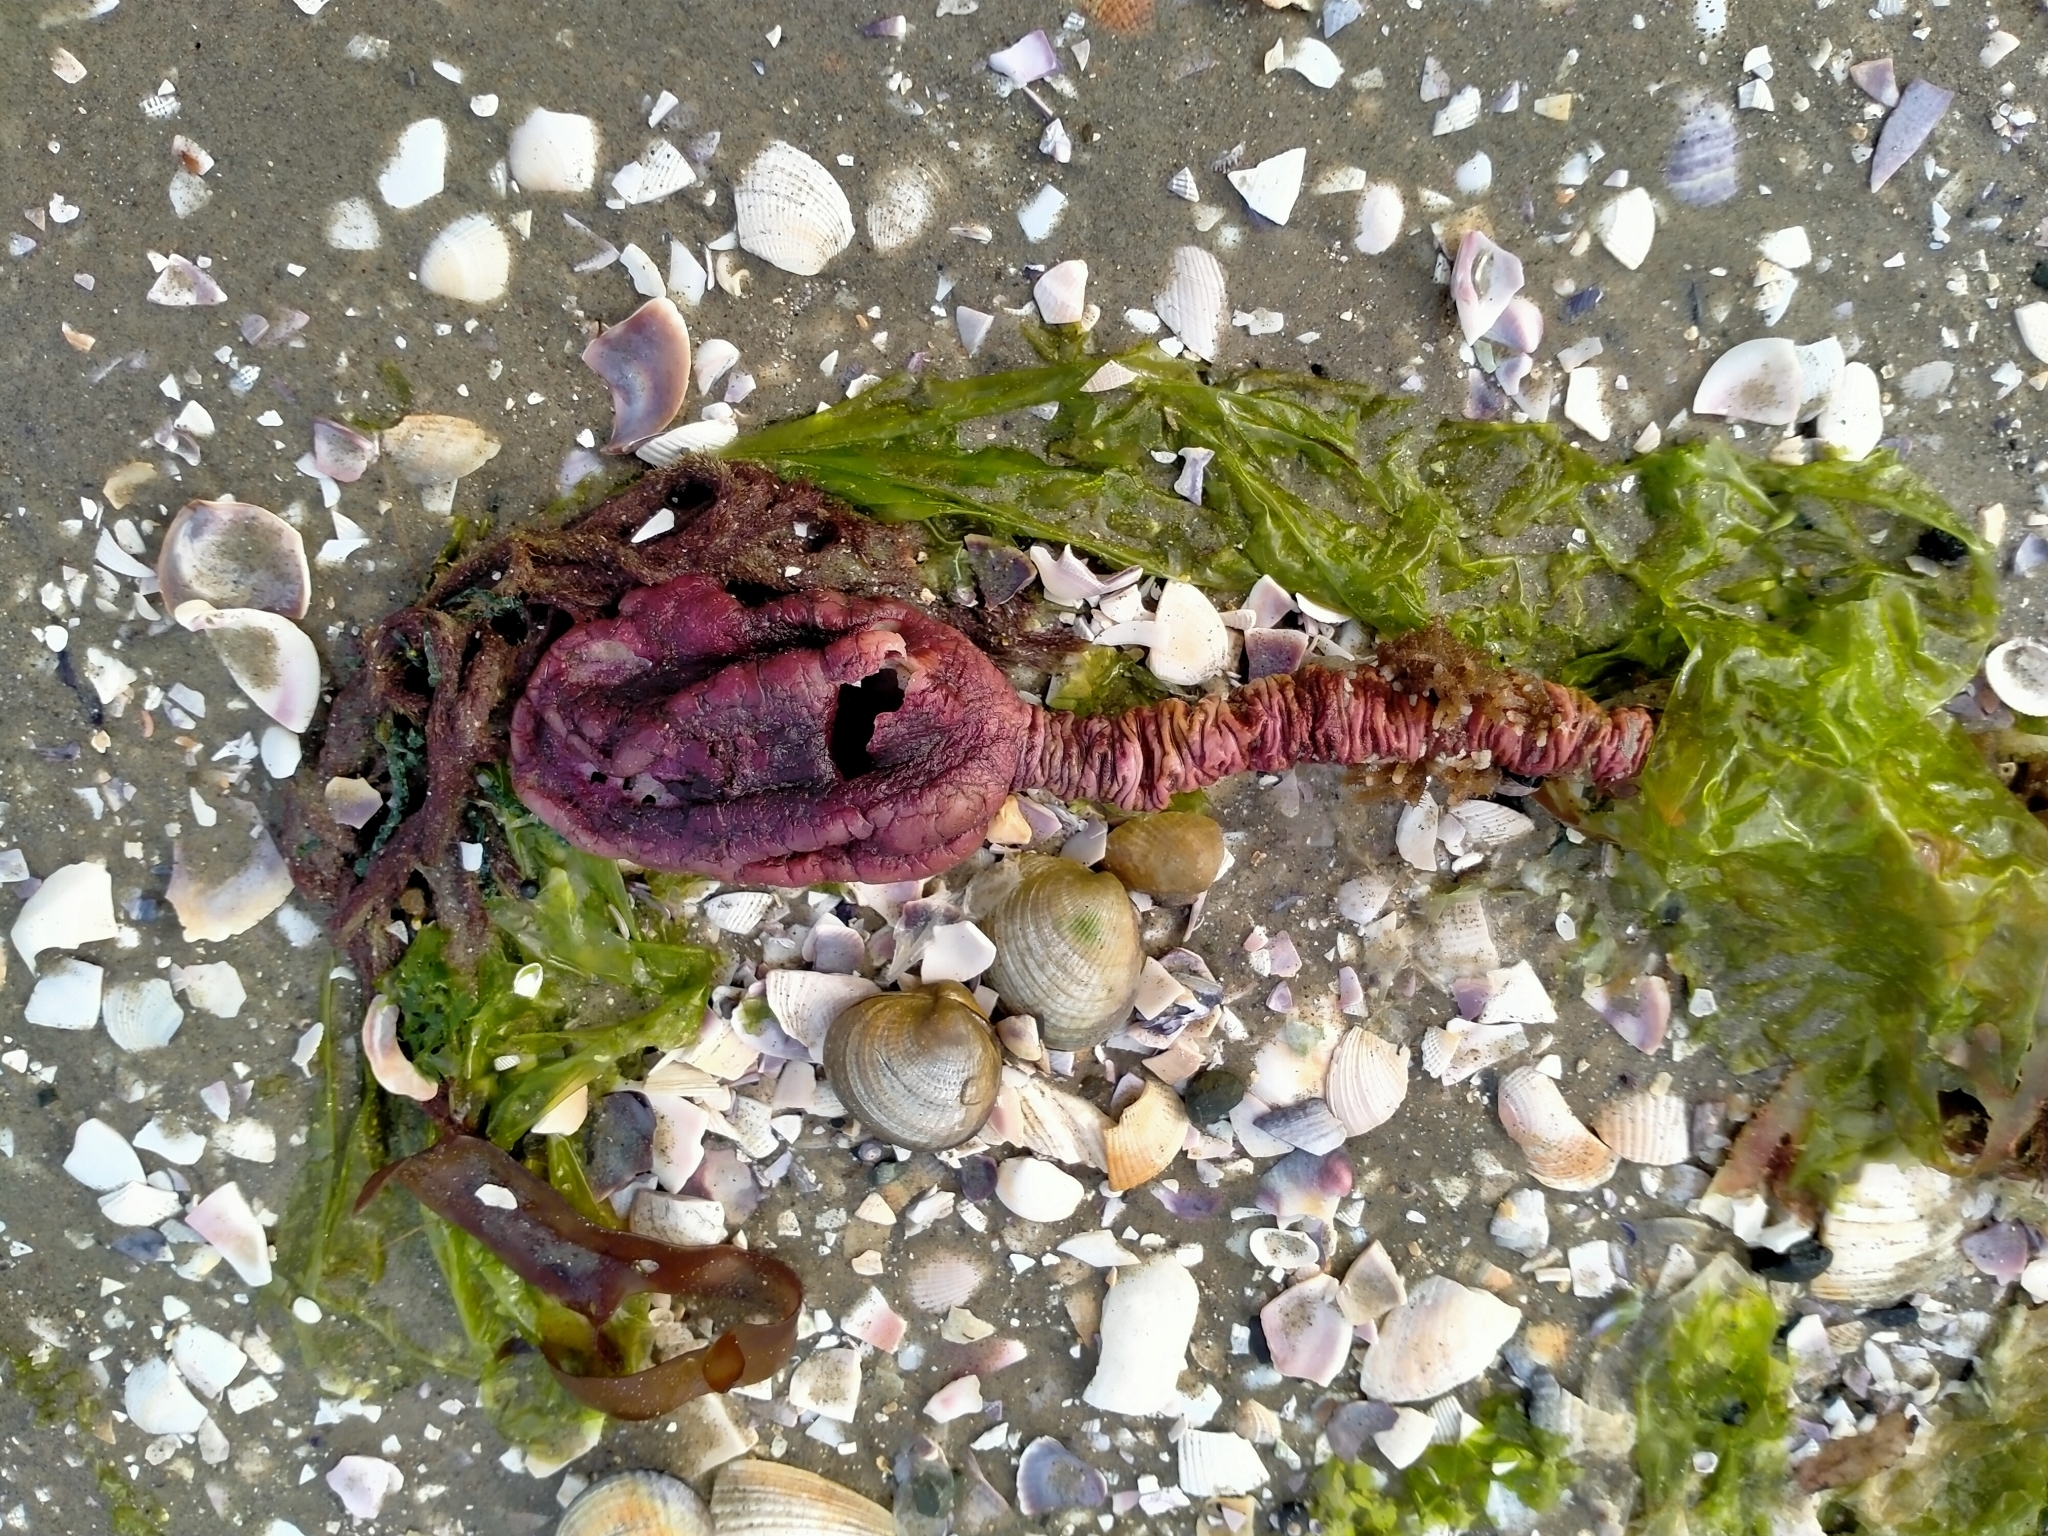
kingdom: Animalia
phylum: Chordata
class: Ascidiacea
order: Stolidobranchia
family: Pyuridae
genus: Pyura
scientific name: Pyura pachydermatina
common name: Sea tulip
